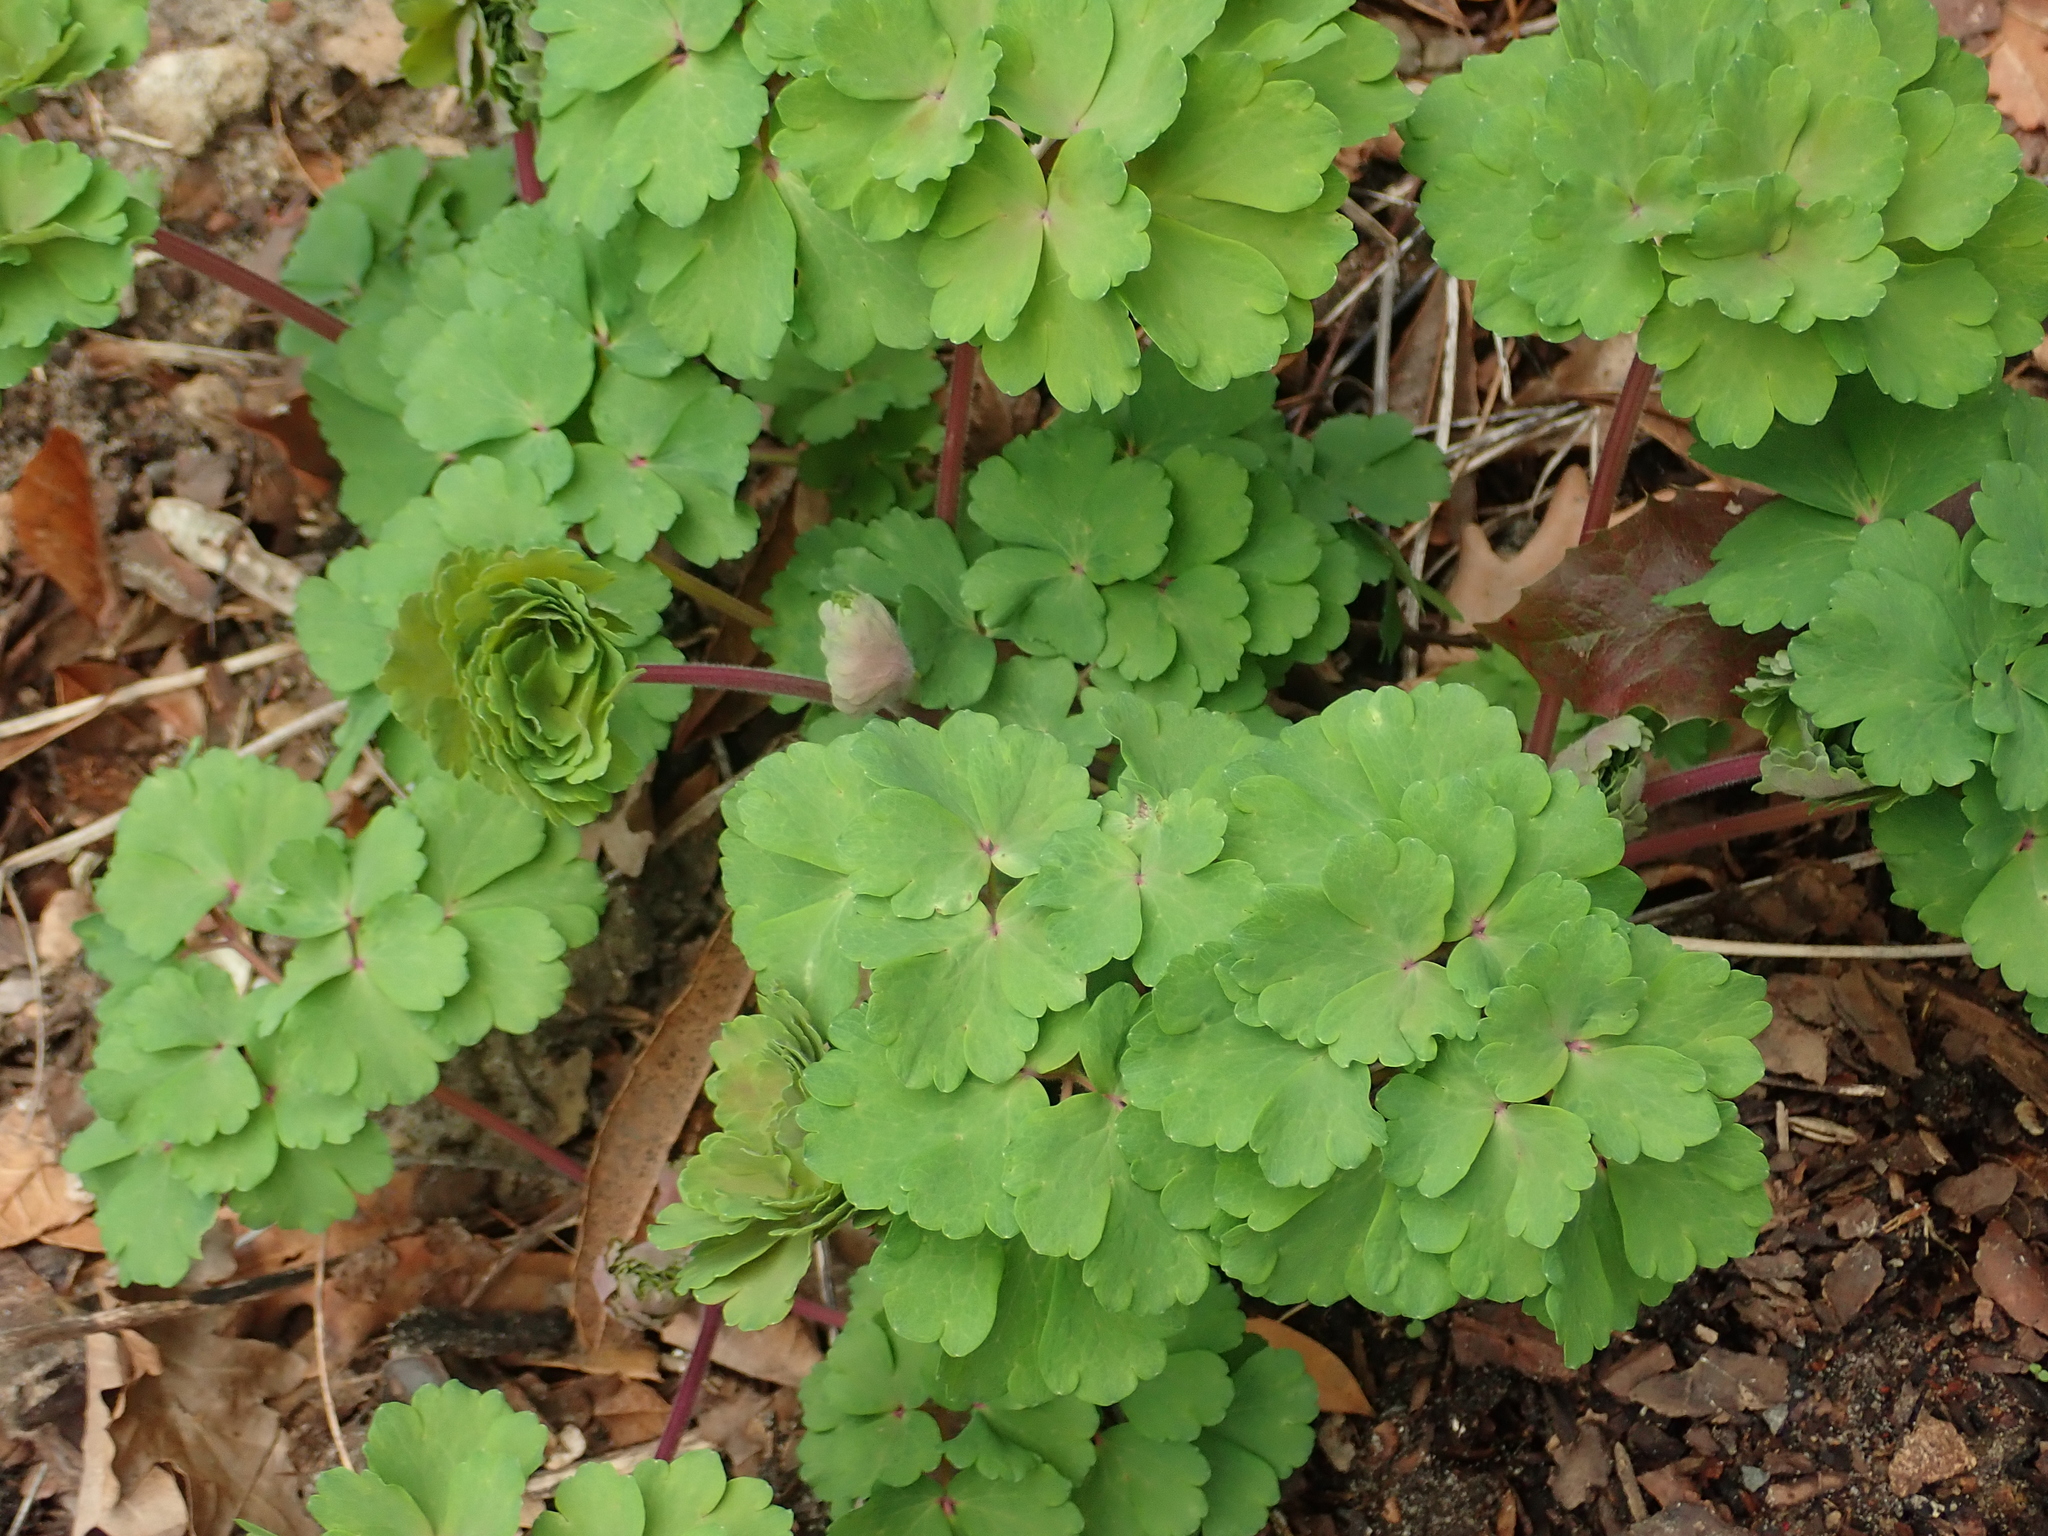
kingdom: Plantae
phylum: Tracheophyta
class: Magnoliopsida
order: Ranunculales
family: Ranunculaceae
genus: Aquilegia
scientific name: Aquilegia vulgaris
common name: Columbine
